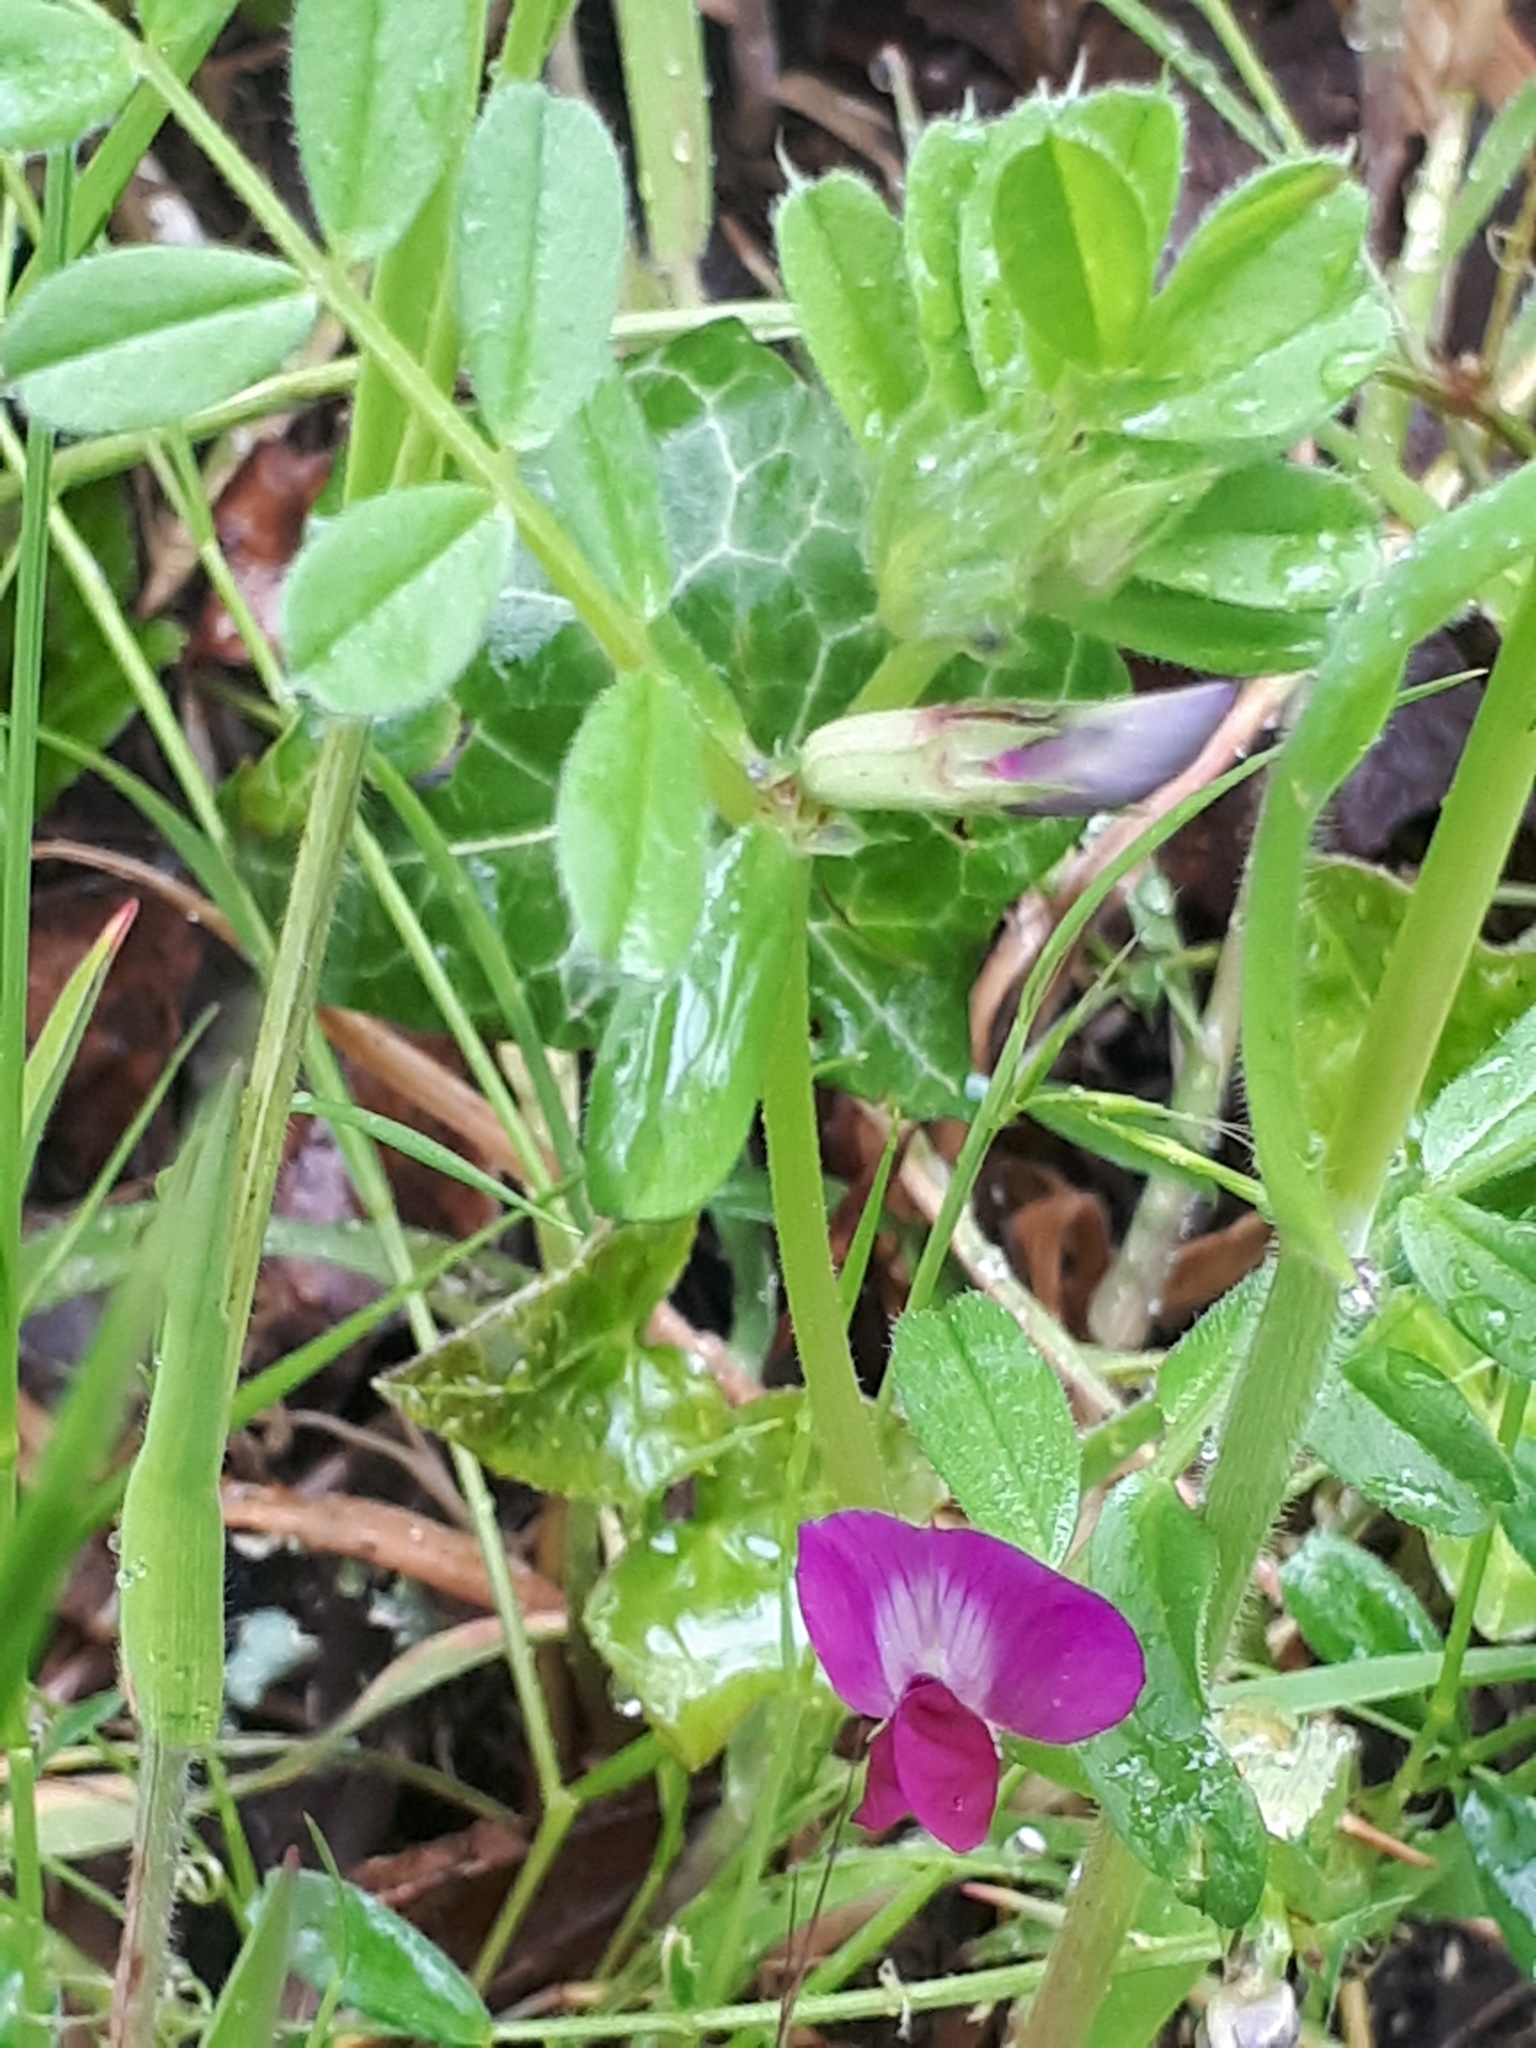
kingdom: Plantae
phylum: Tracheophyta
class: Magnoliopsida
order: Fabales
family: Fabaceae
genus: Vicia
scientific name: Vicia sativa
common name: Garden vetch
